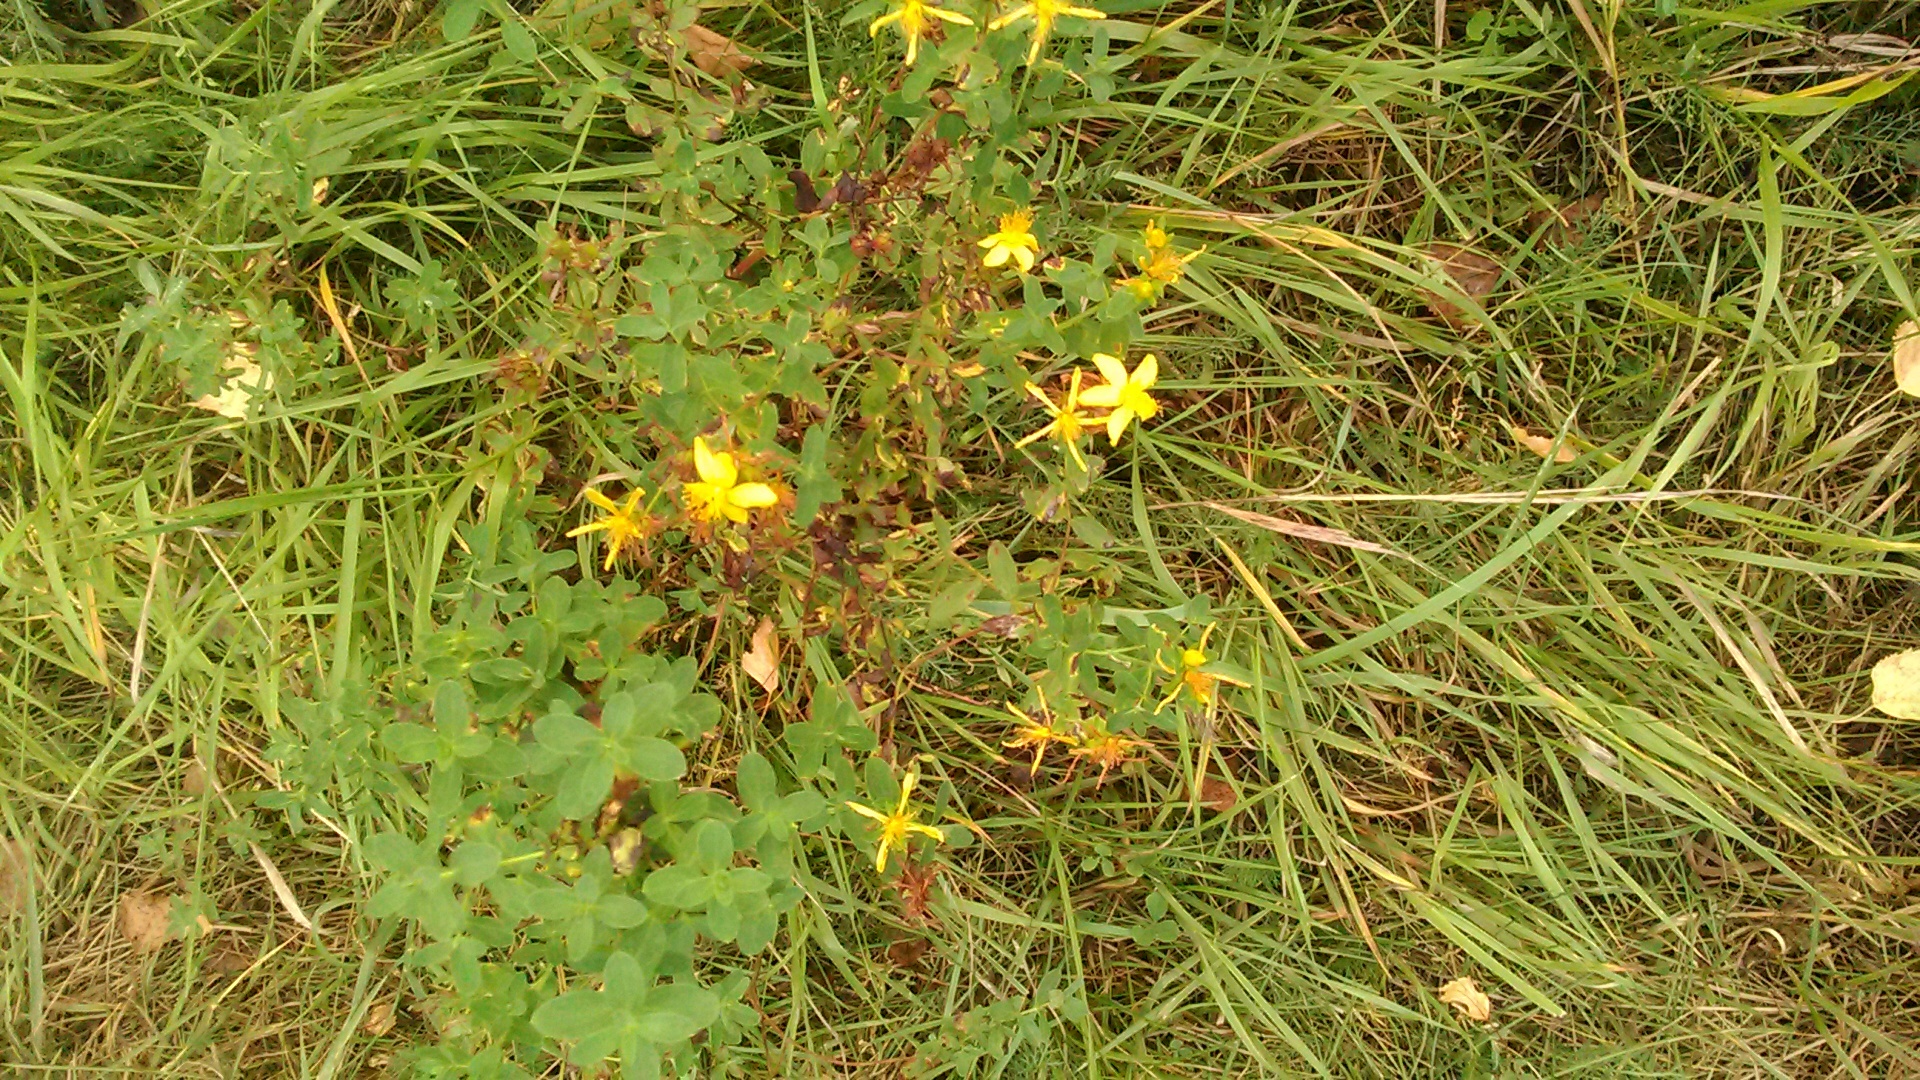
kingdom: Plantae
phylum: Tracheophyta
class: Magnoliopsida
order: Malpighiales
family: Hypericaceae
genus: Hypericum
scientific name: Hypericum perforatum
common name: Common st. johnswort
